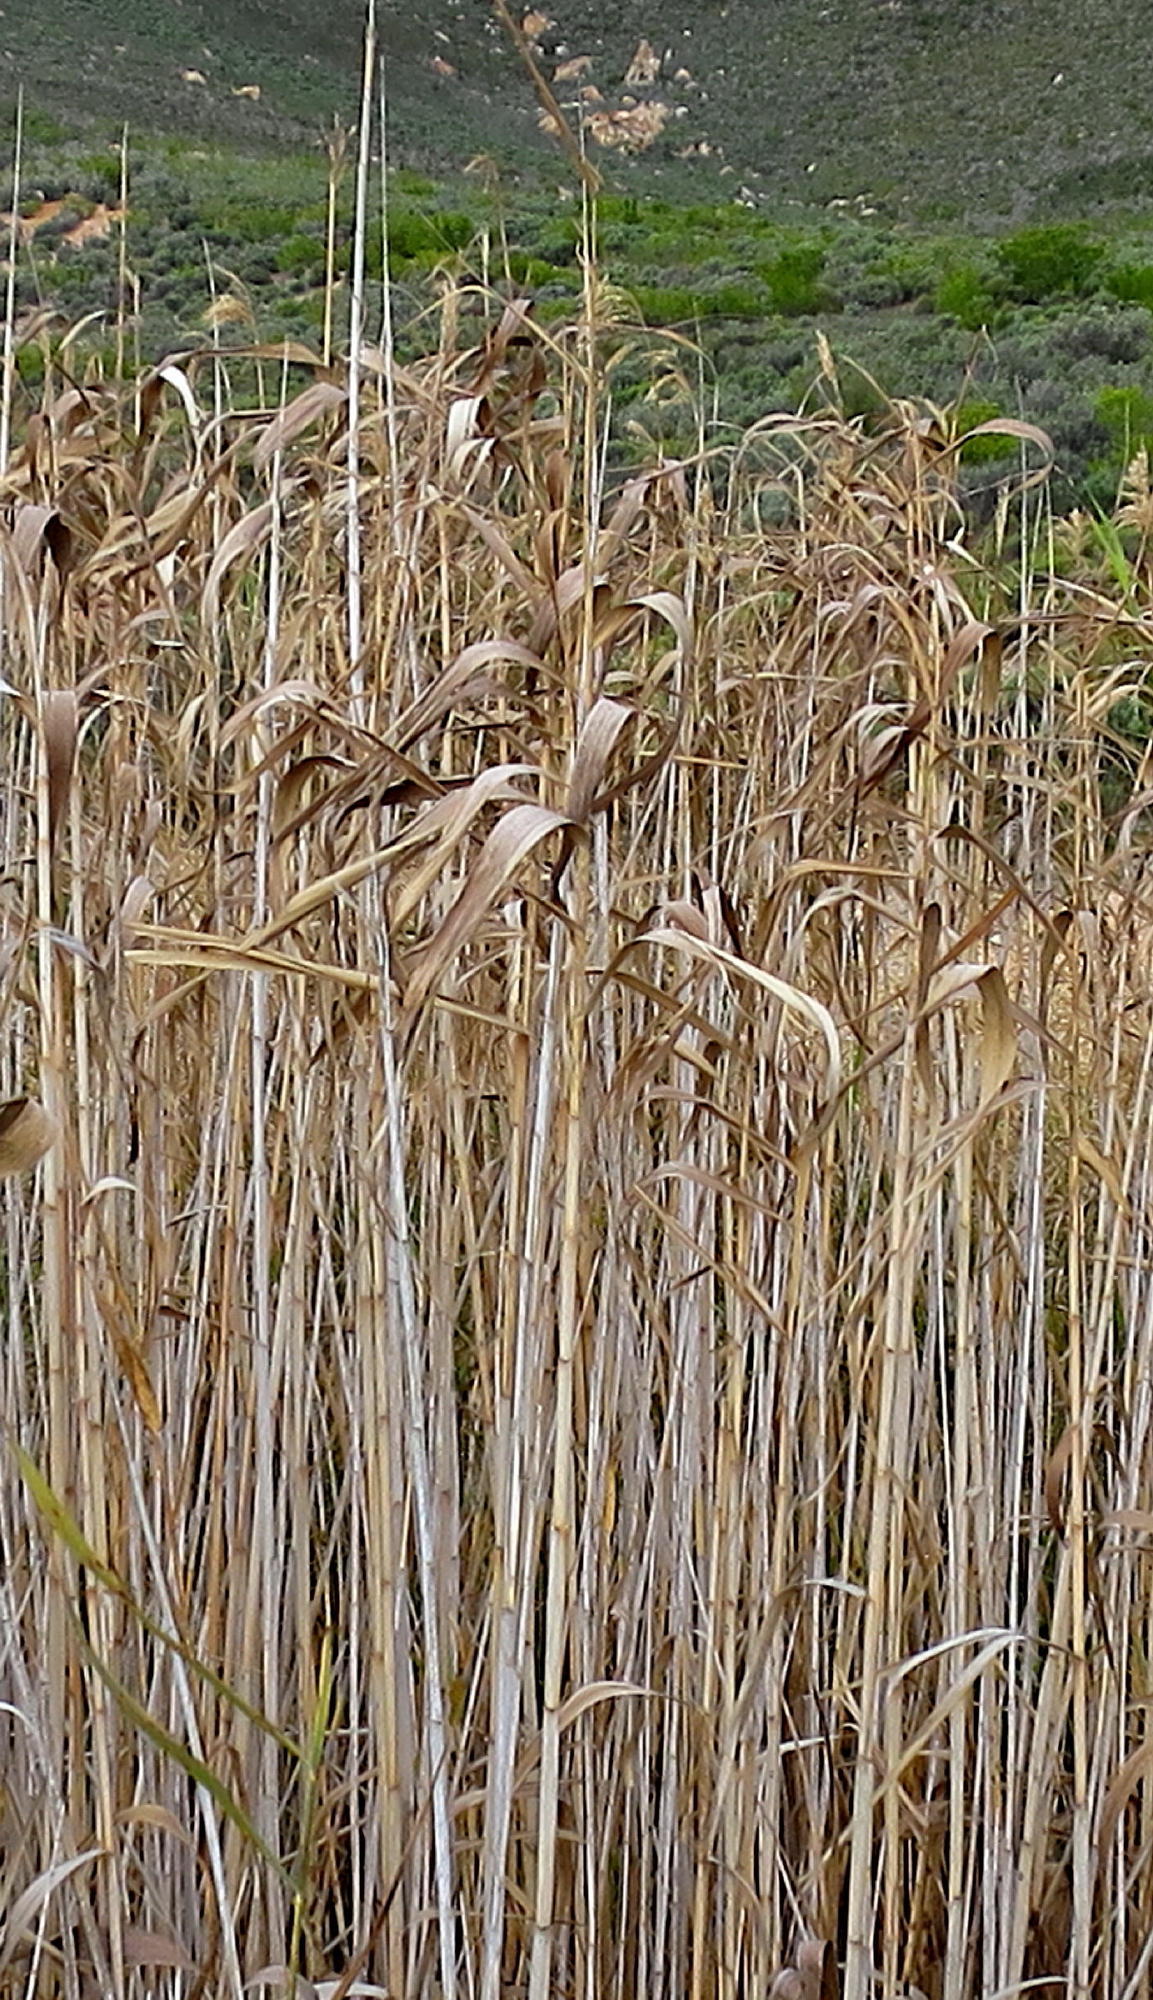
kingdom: Plantae
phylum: Tracheophyta
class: Liliopsida
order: Poales
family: Poaceae
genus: Phragmites
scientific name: Phragmites australis
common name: Common reed
